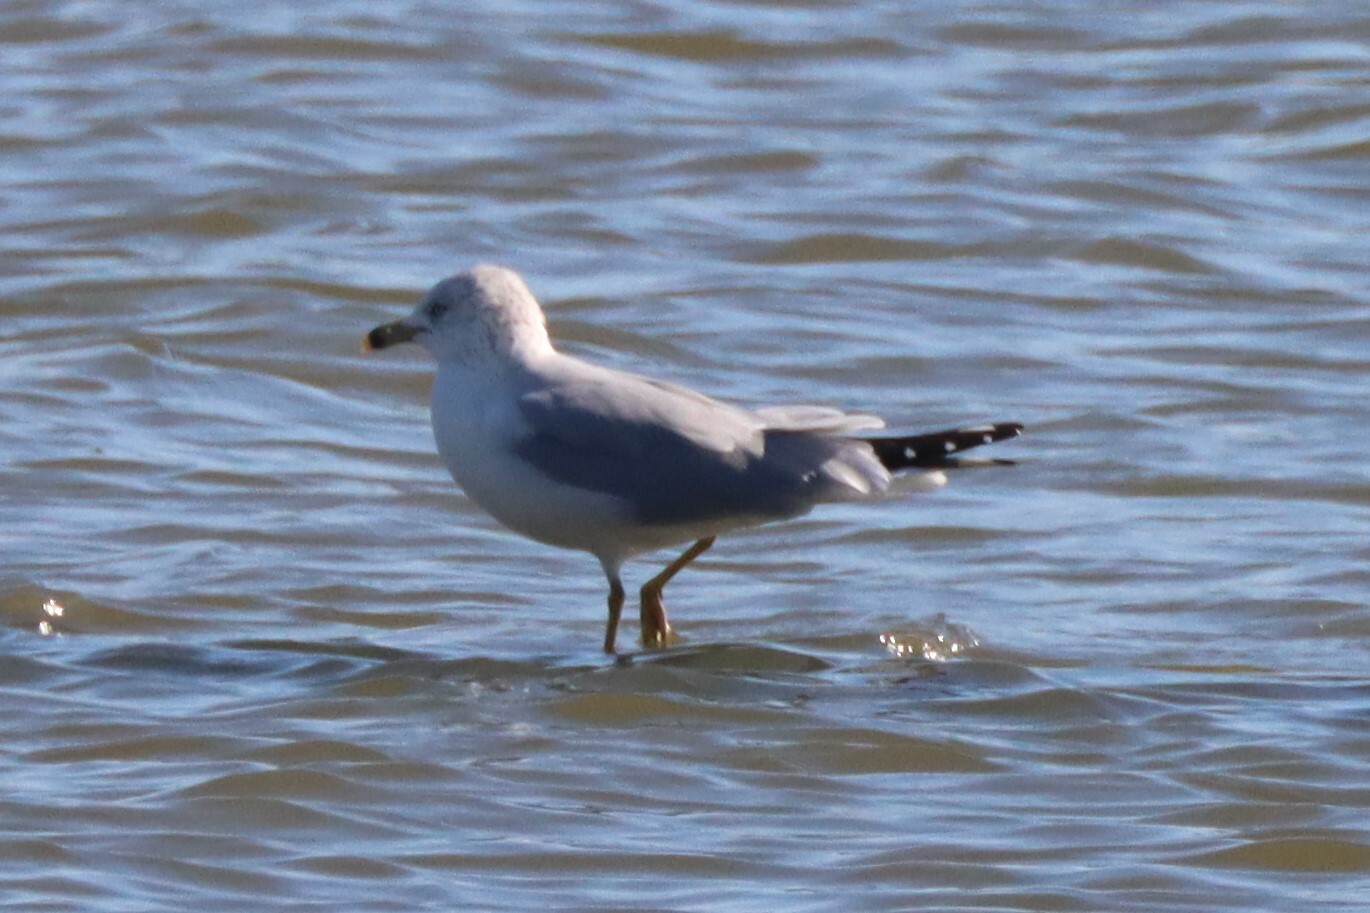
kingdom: Animalia
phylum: Chordata
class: Aves
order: Charadriiformes
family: Laridae
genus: Larus
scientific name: Larus delawarensis
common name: Ring-billed gull
